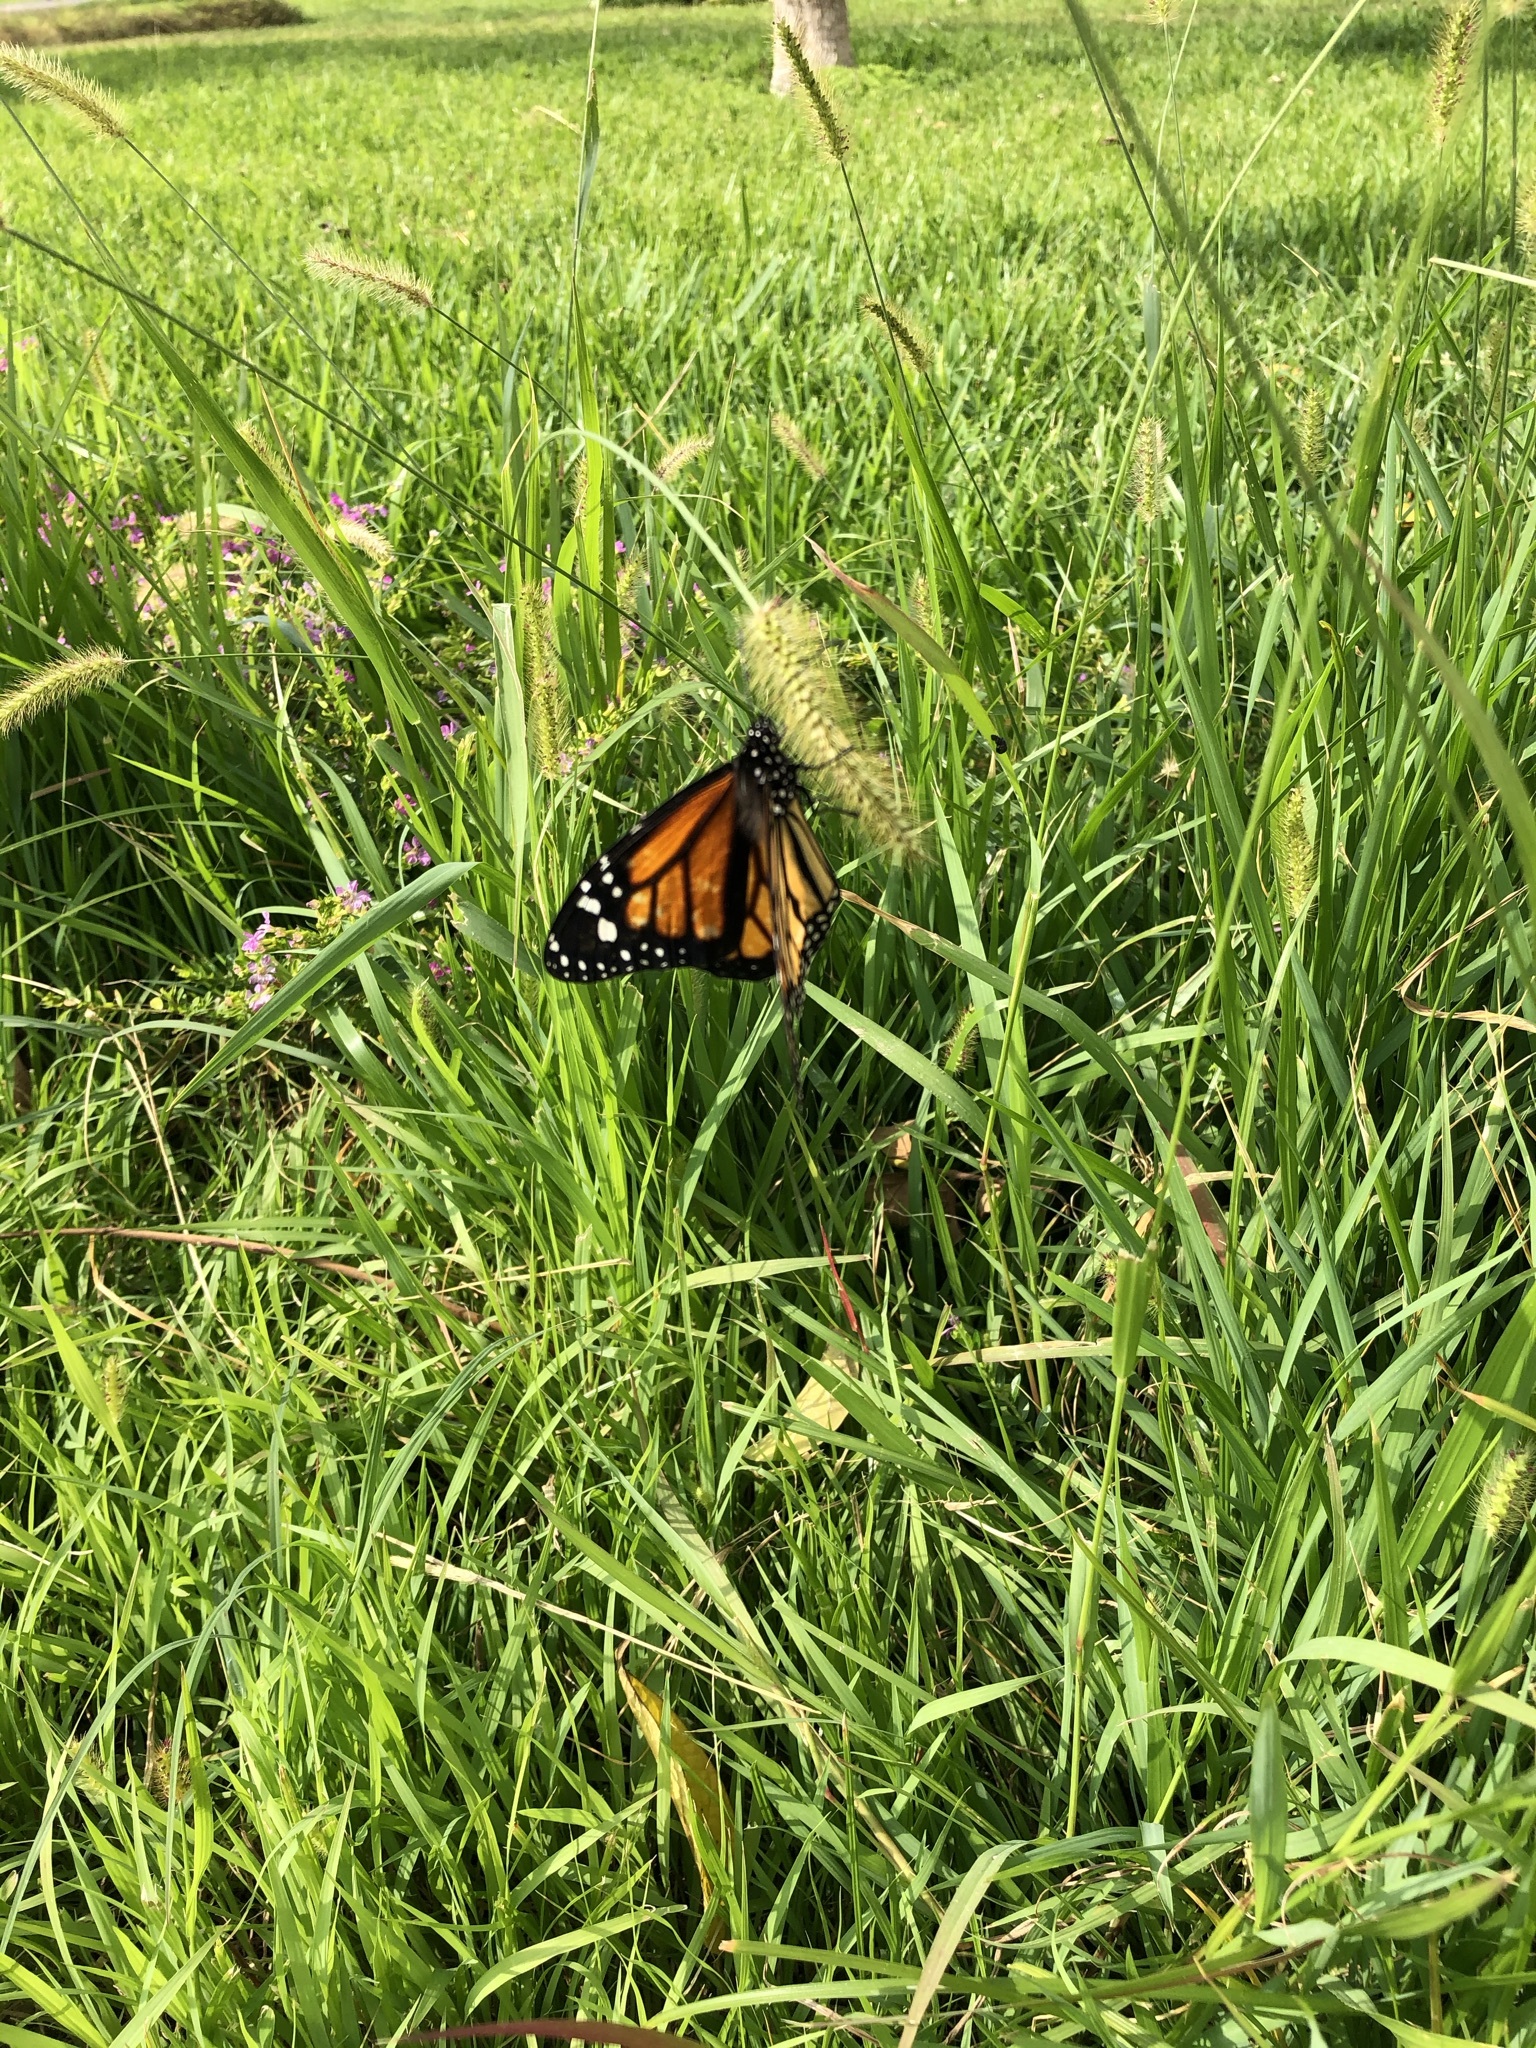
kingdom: Animalia
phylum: Arthropoda
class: Insecta
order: Lepidoptera
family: Nymphalidae
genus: Danaus
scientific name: Danaus plexippus
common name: Monarch
